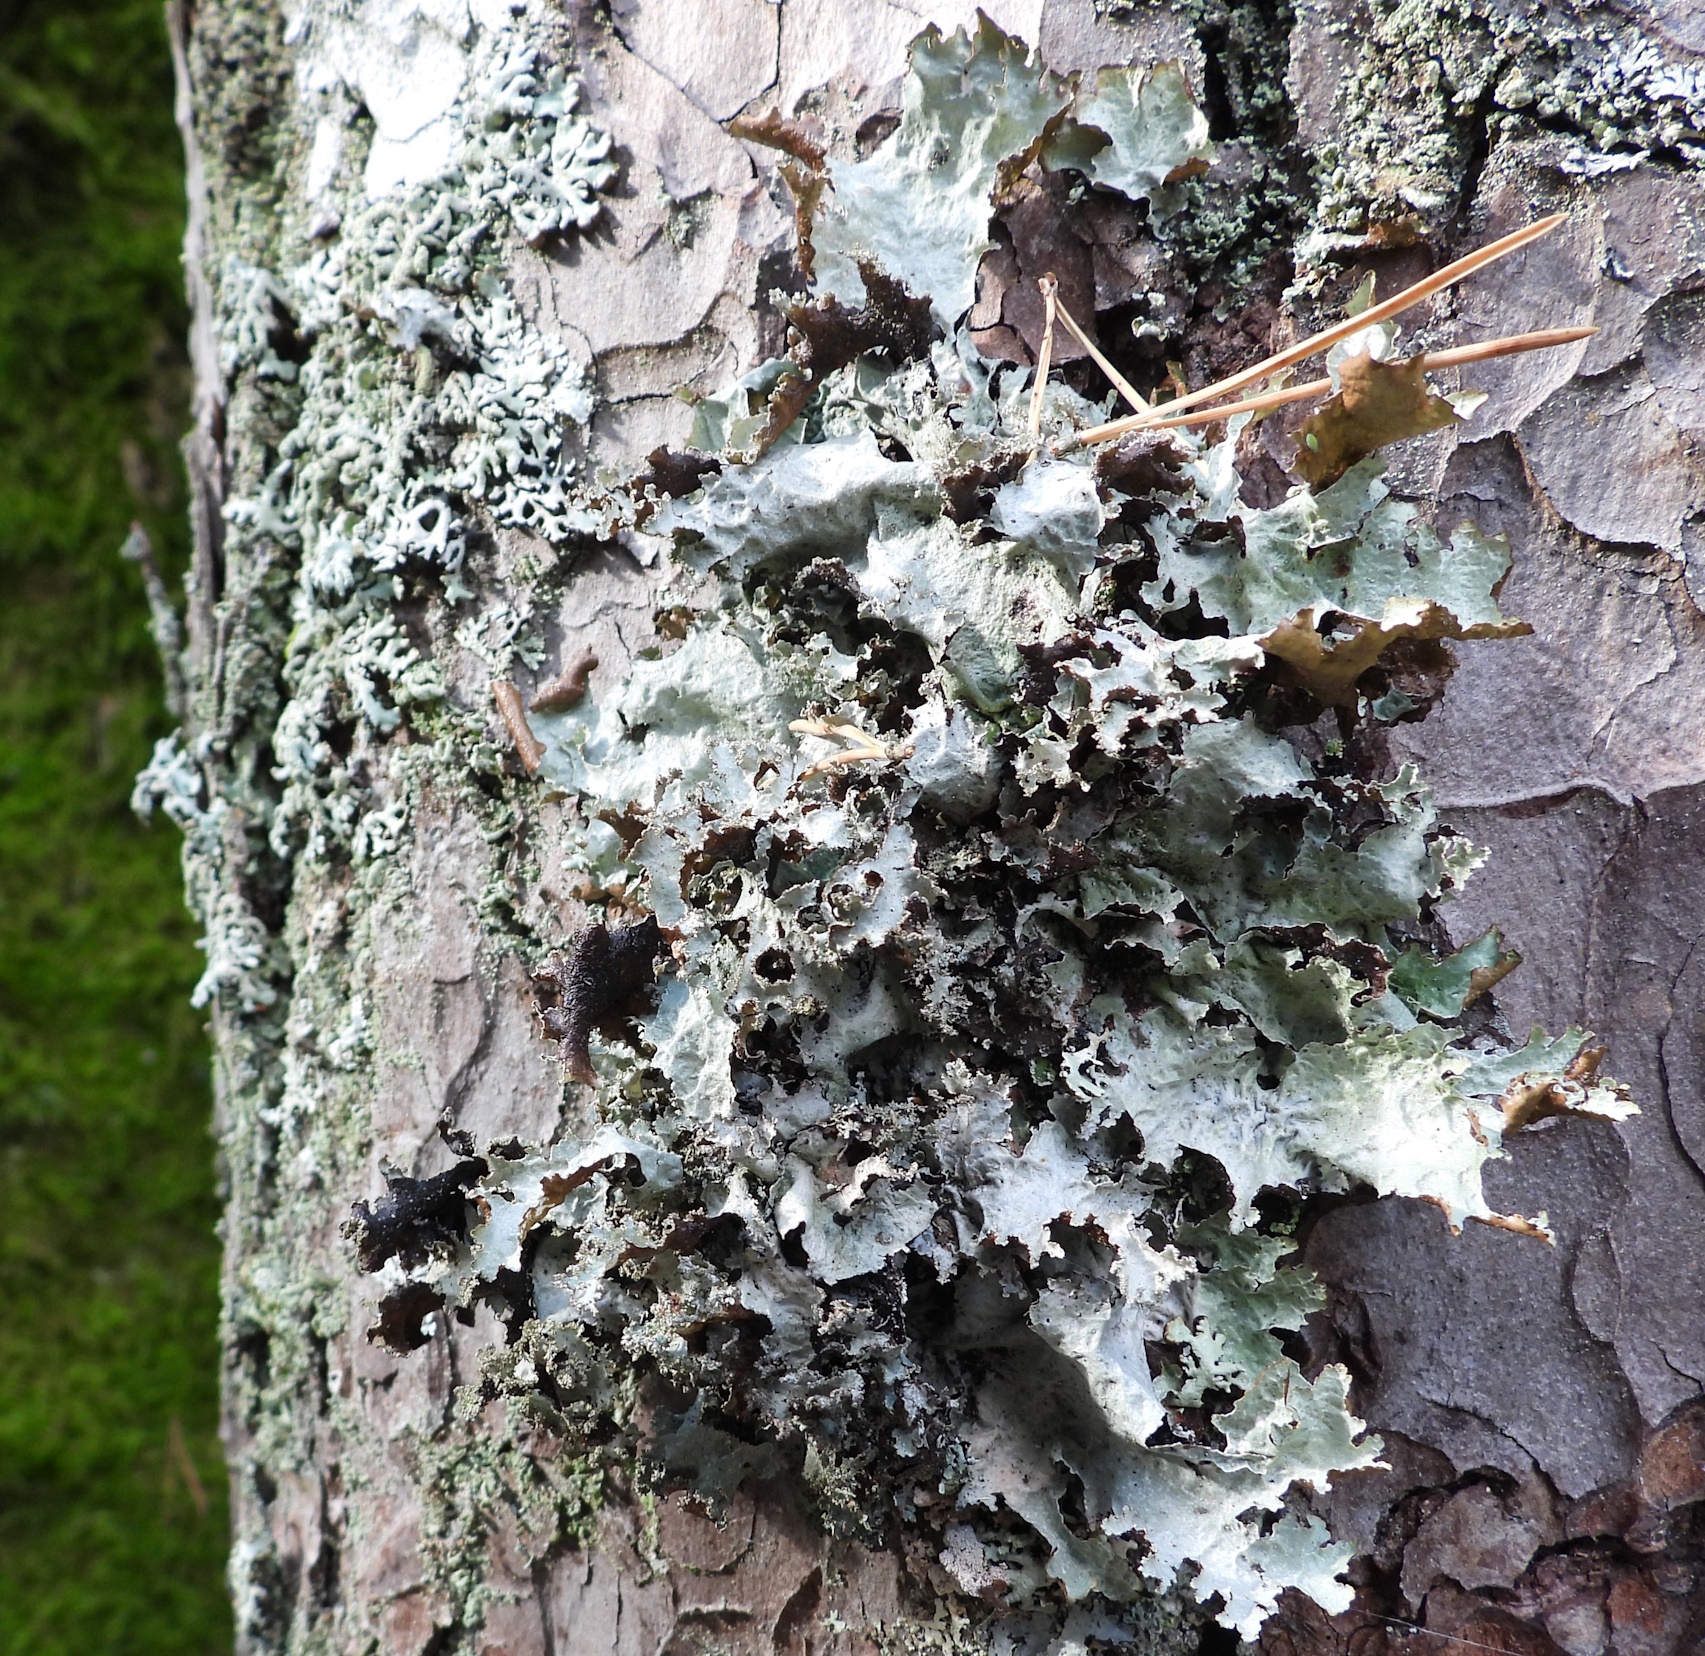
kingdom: Fungi
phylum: Ascomycota
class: Lecanoromycetes
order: Lecanorales
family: Parmeliaceae
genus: Platismatia
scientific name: Platismatia glauca
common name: Varied rag lichen
